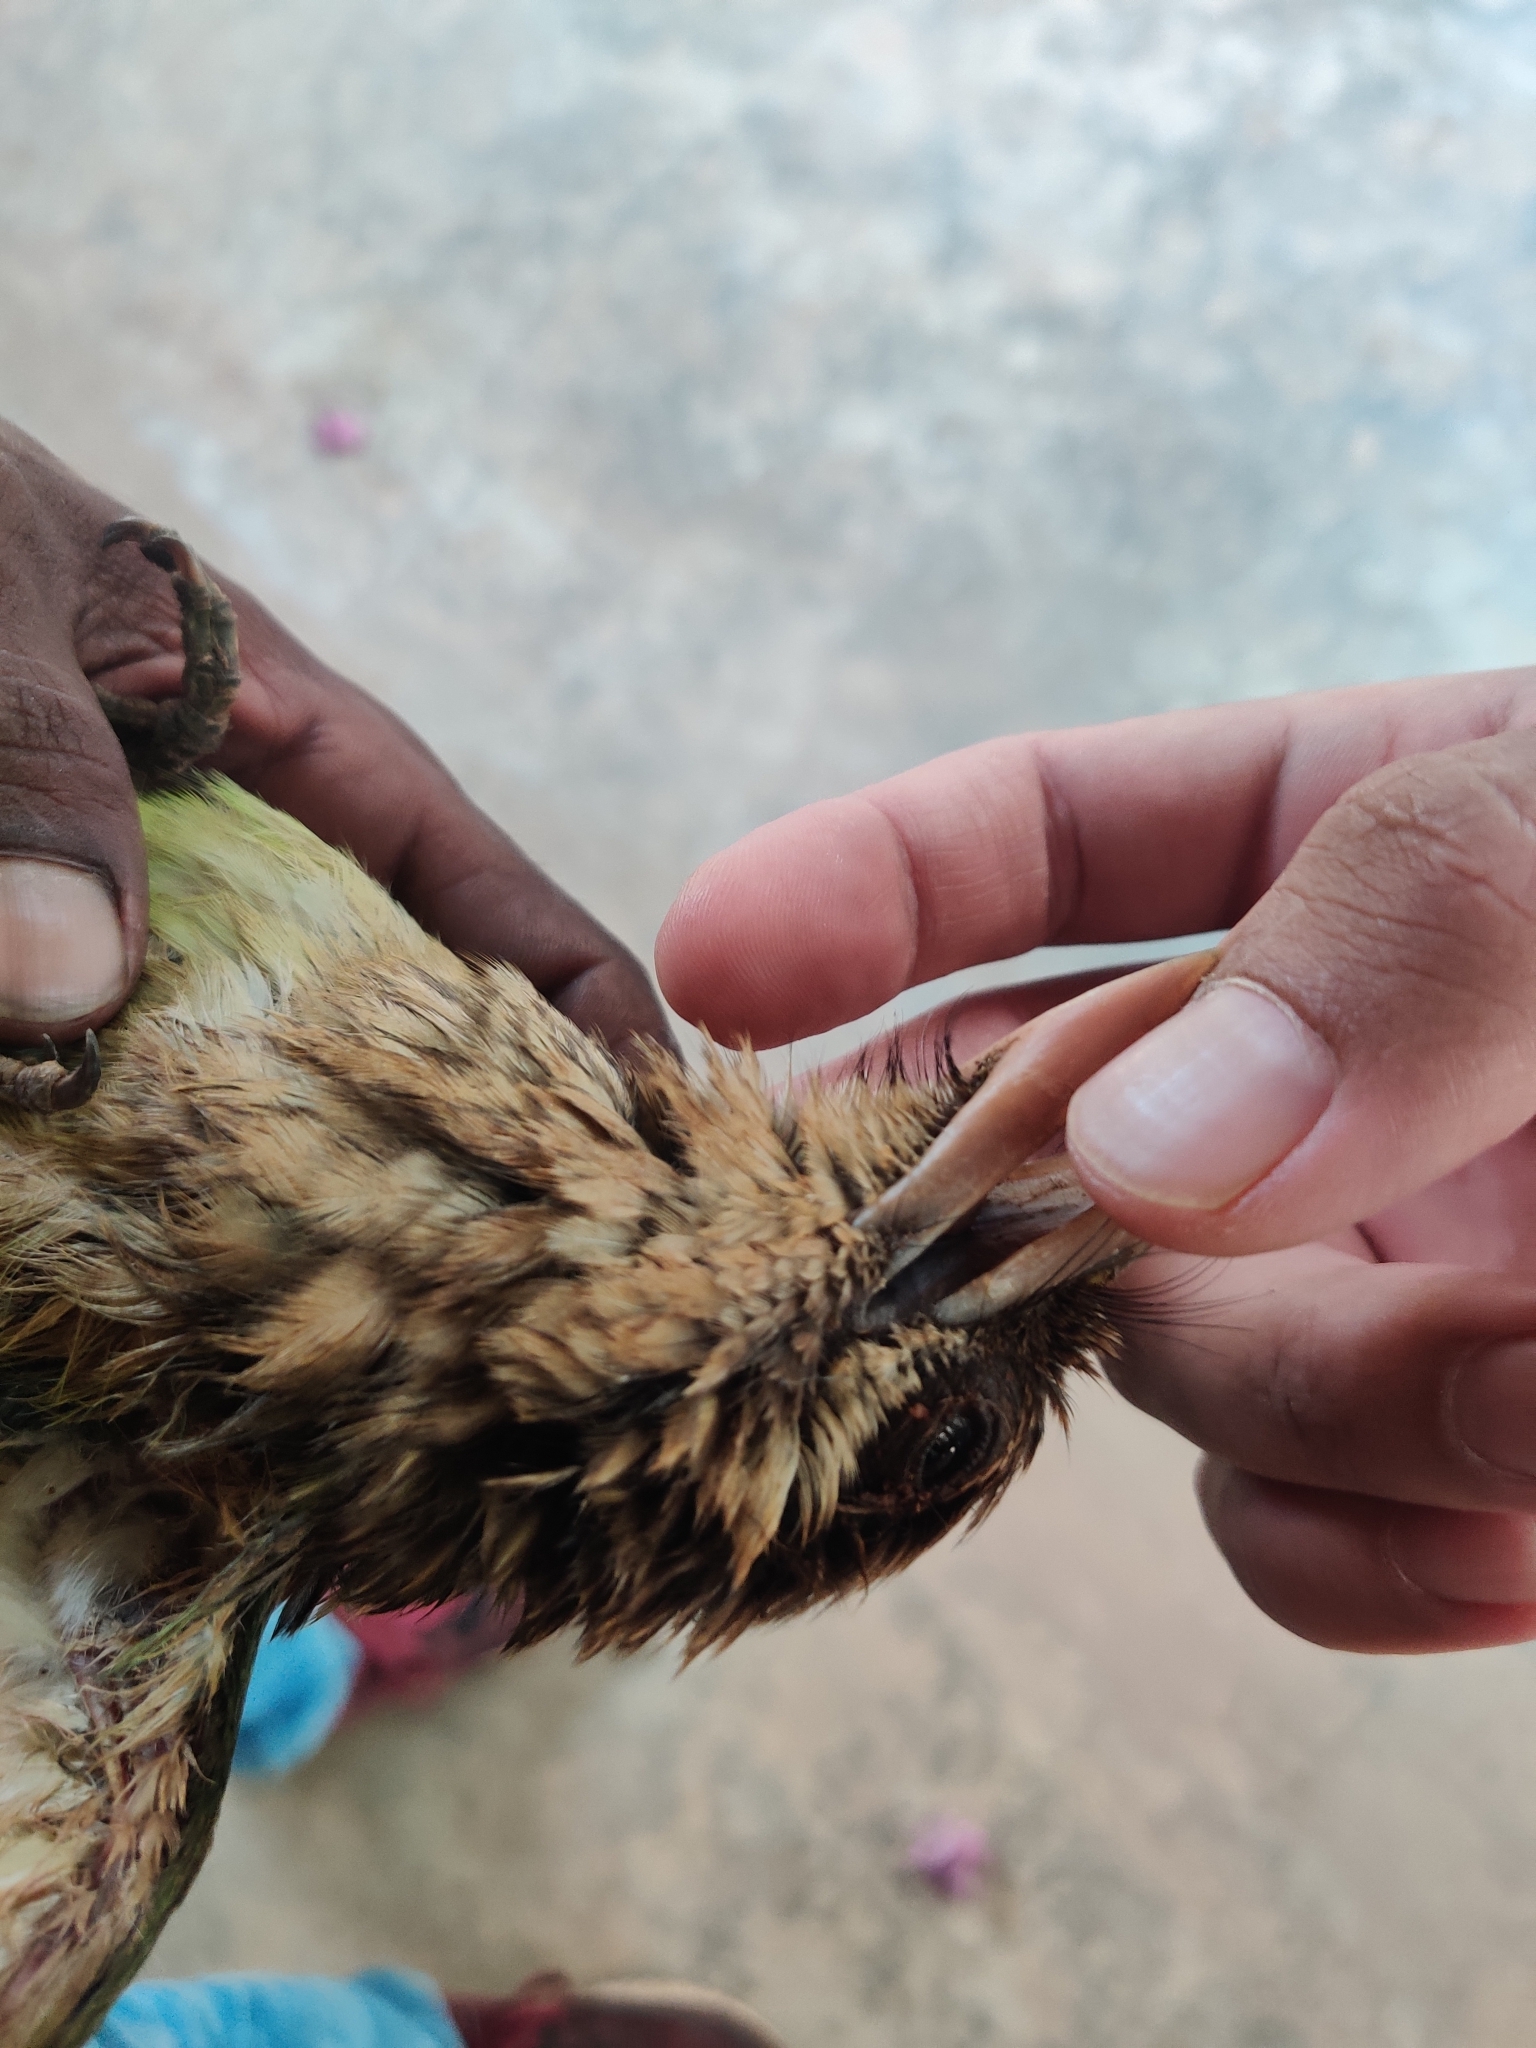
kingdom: Animalia
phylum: Chordata
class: Aves
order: Piciformes
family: Megalaimidae
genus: Psilopogon
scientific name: Psilopogon viridis
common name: White-cheeked barbet
